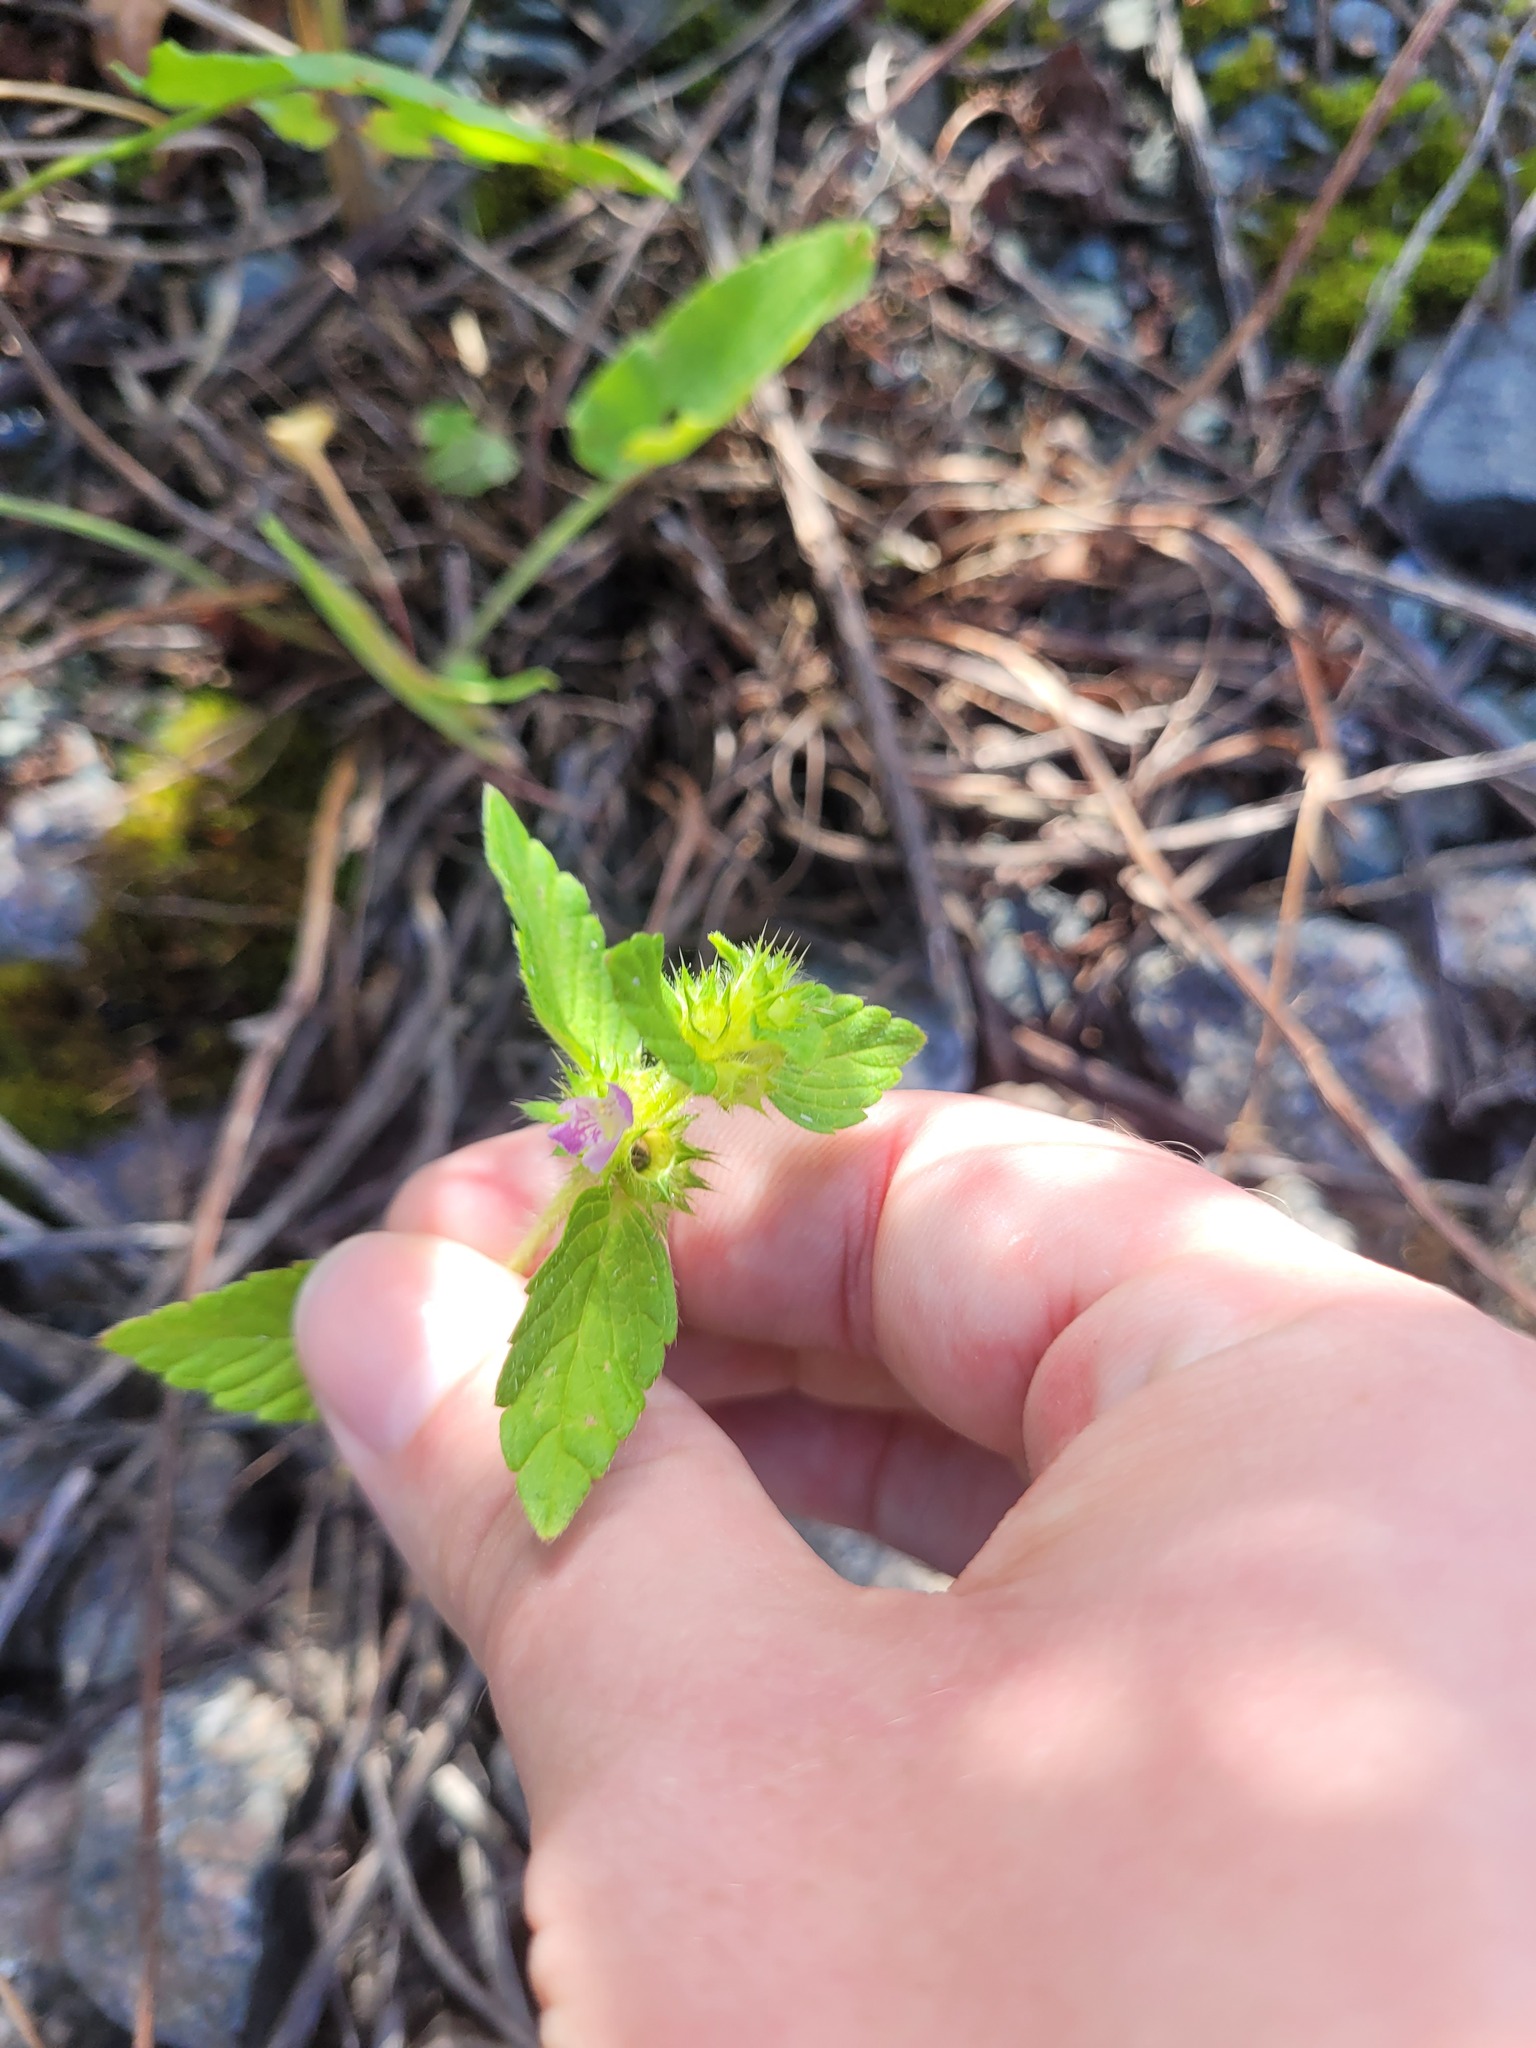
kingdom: Plantae
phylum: Tracheophyta
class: Magnoliopsida
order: Lamiales
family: Lamiaceae
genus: Galeopsis
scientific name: Galeopsis bifida
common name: Bifid hemp-nettle
